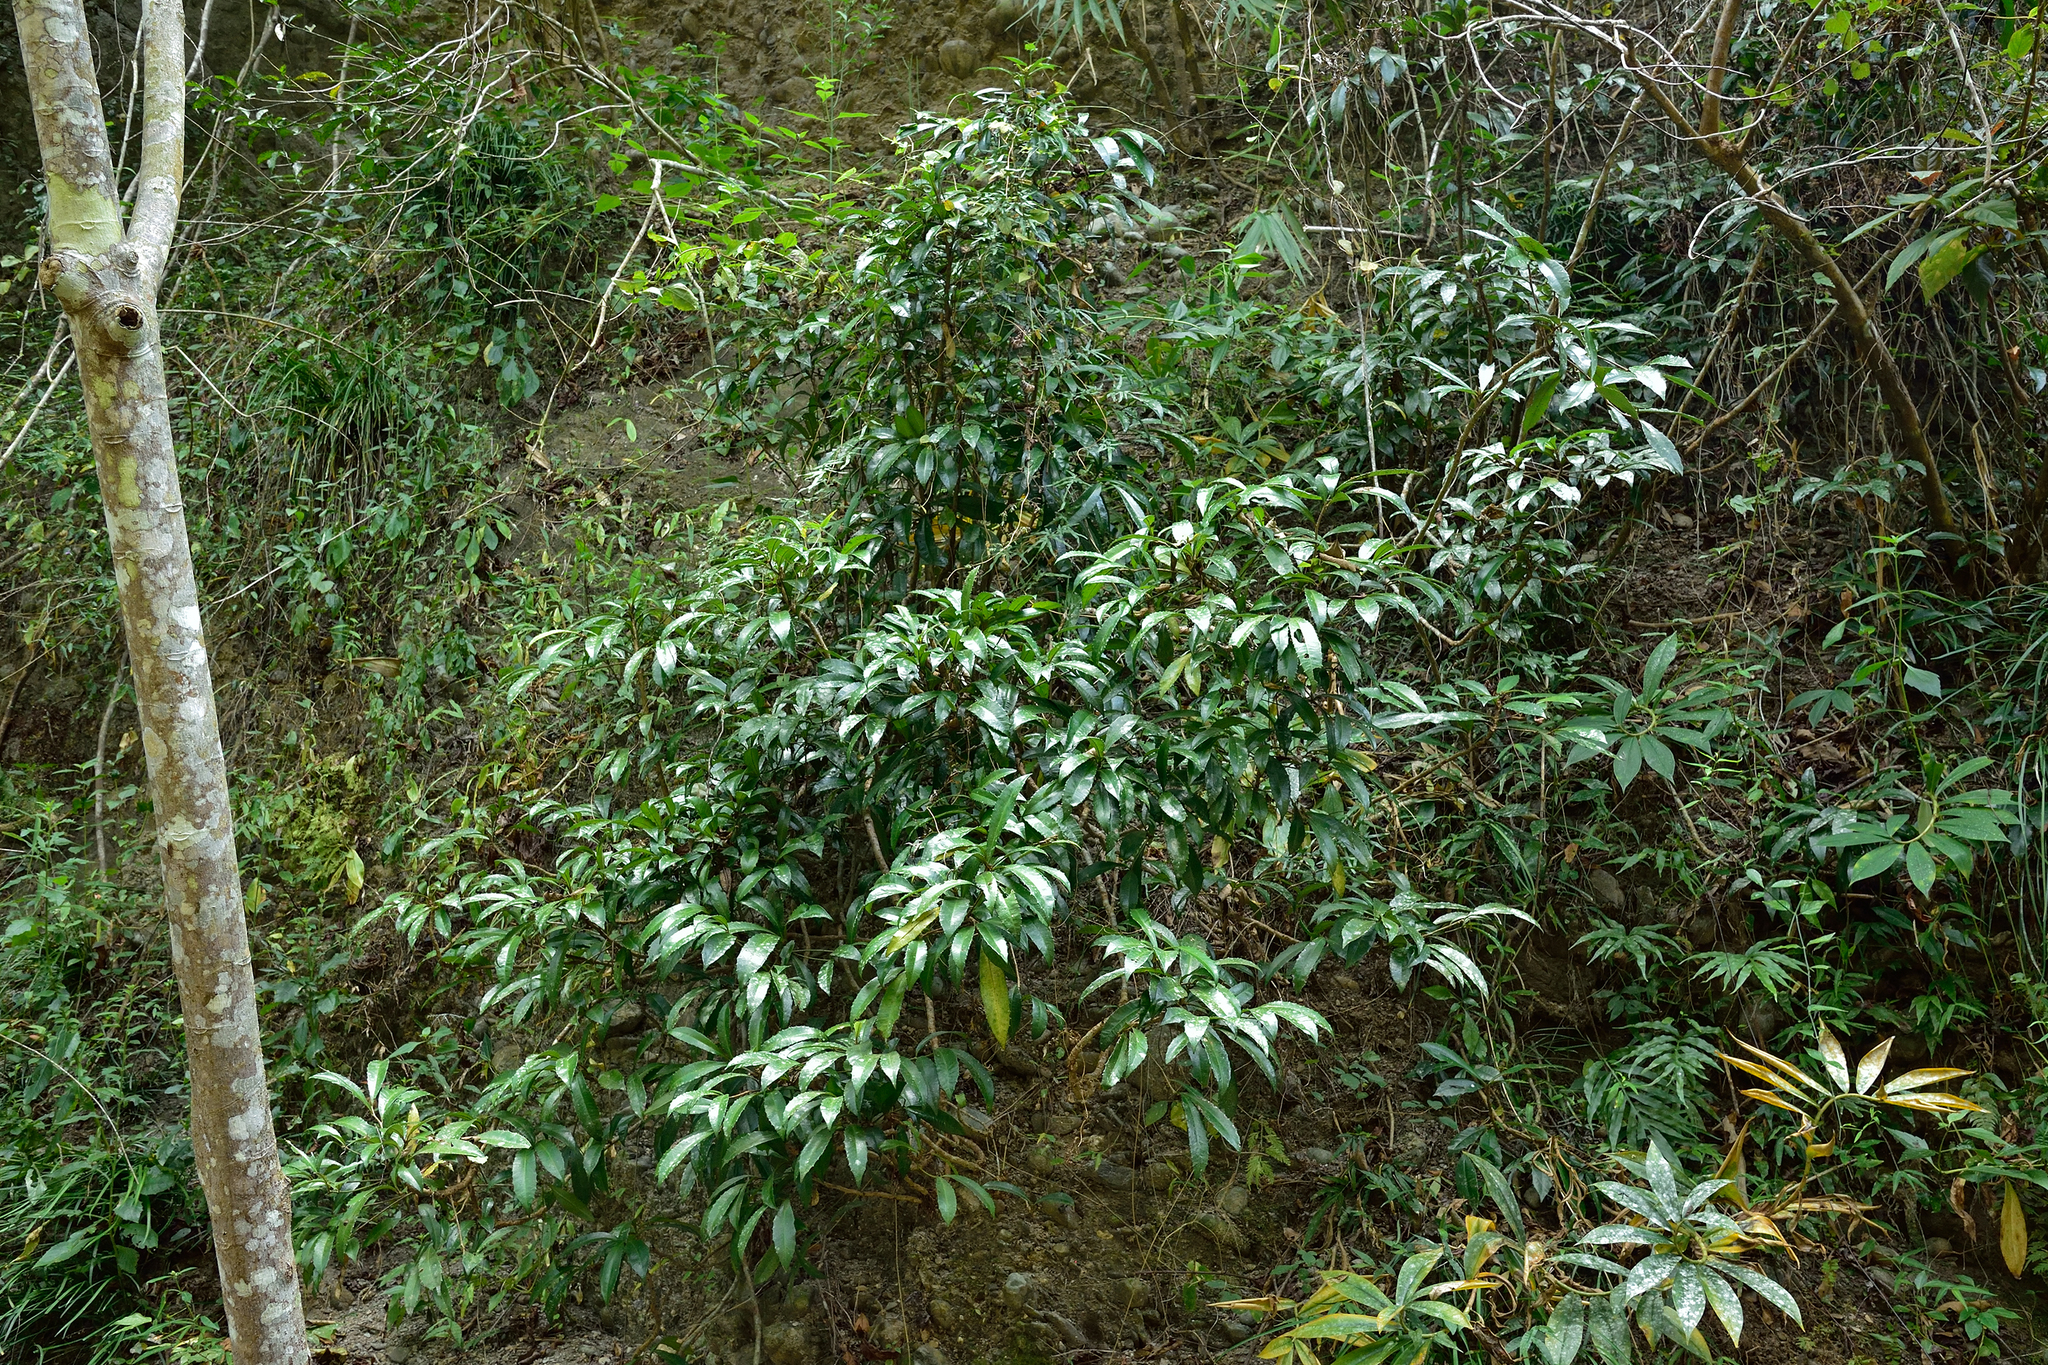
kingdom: Plantae
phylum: Tracheophyta
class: Magnoliopsida
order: Ericales
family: Primulaceae
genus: Ardisia
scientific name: Ardisia cornudentata
